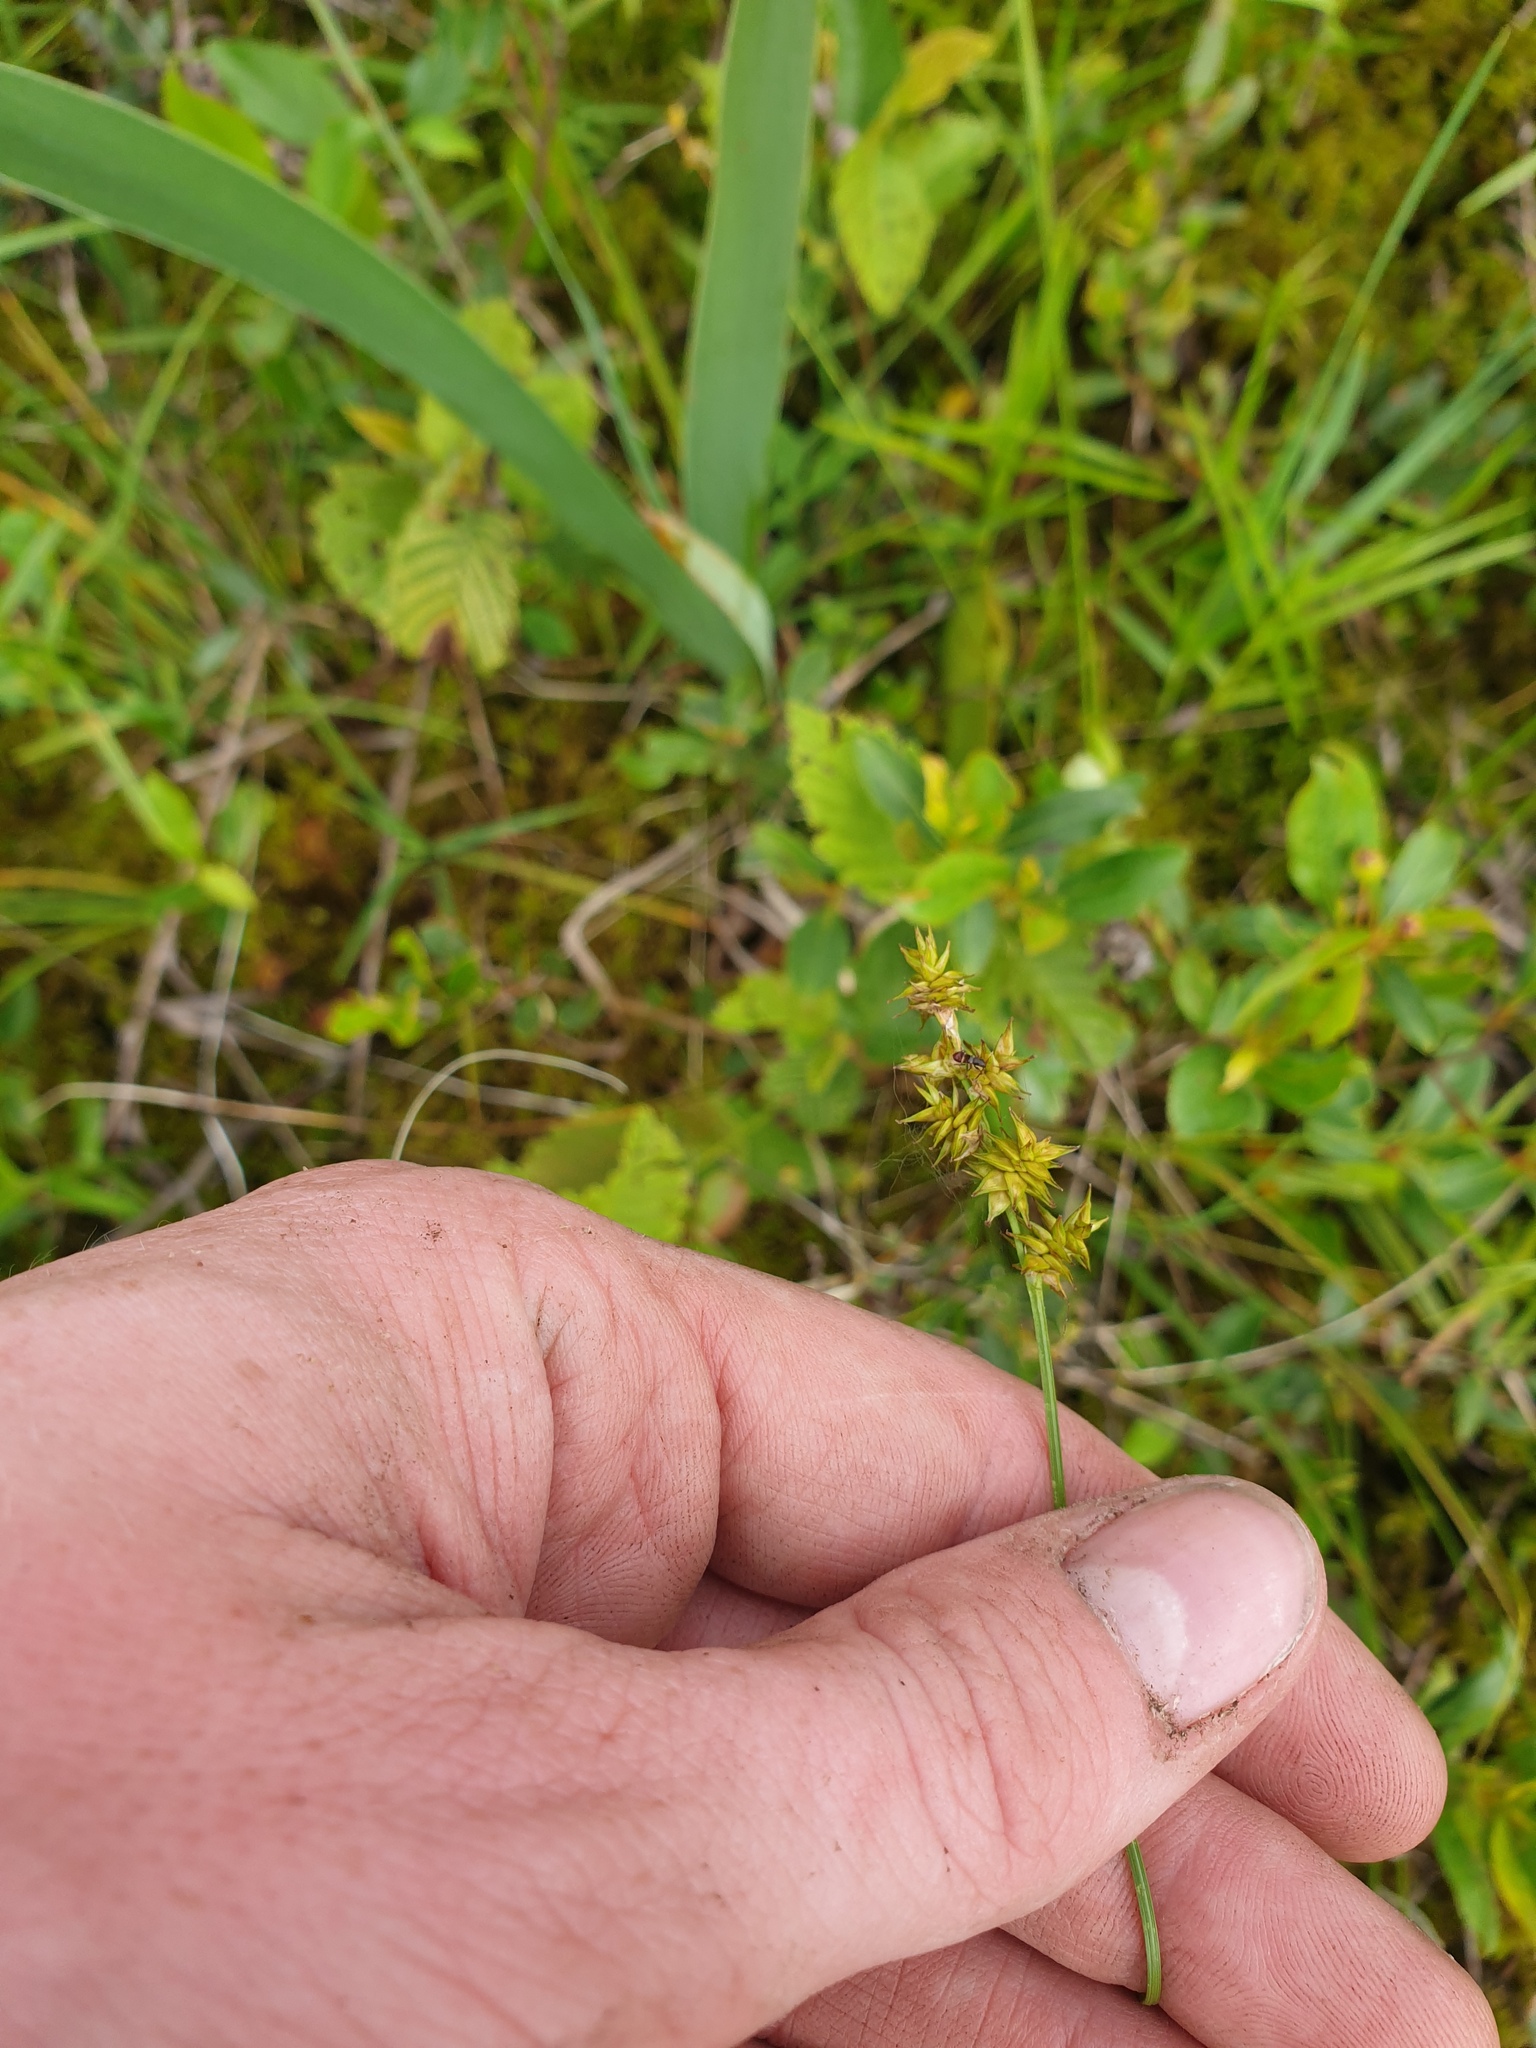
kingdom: Plantae
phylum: Tracheophyta
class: Liliopsida
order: Poales
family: Cyperaceae
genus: Carex
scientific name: Carex wiegandii
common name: Wiegand's sedge
